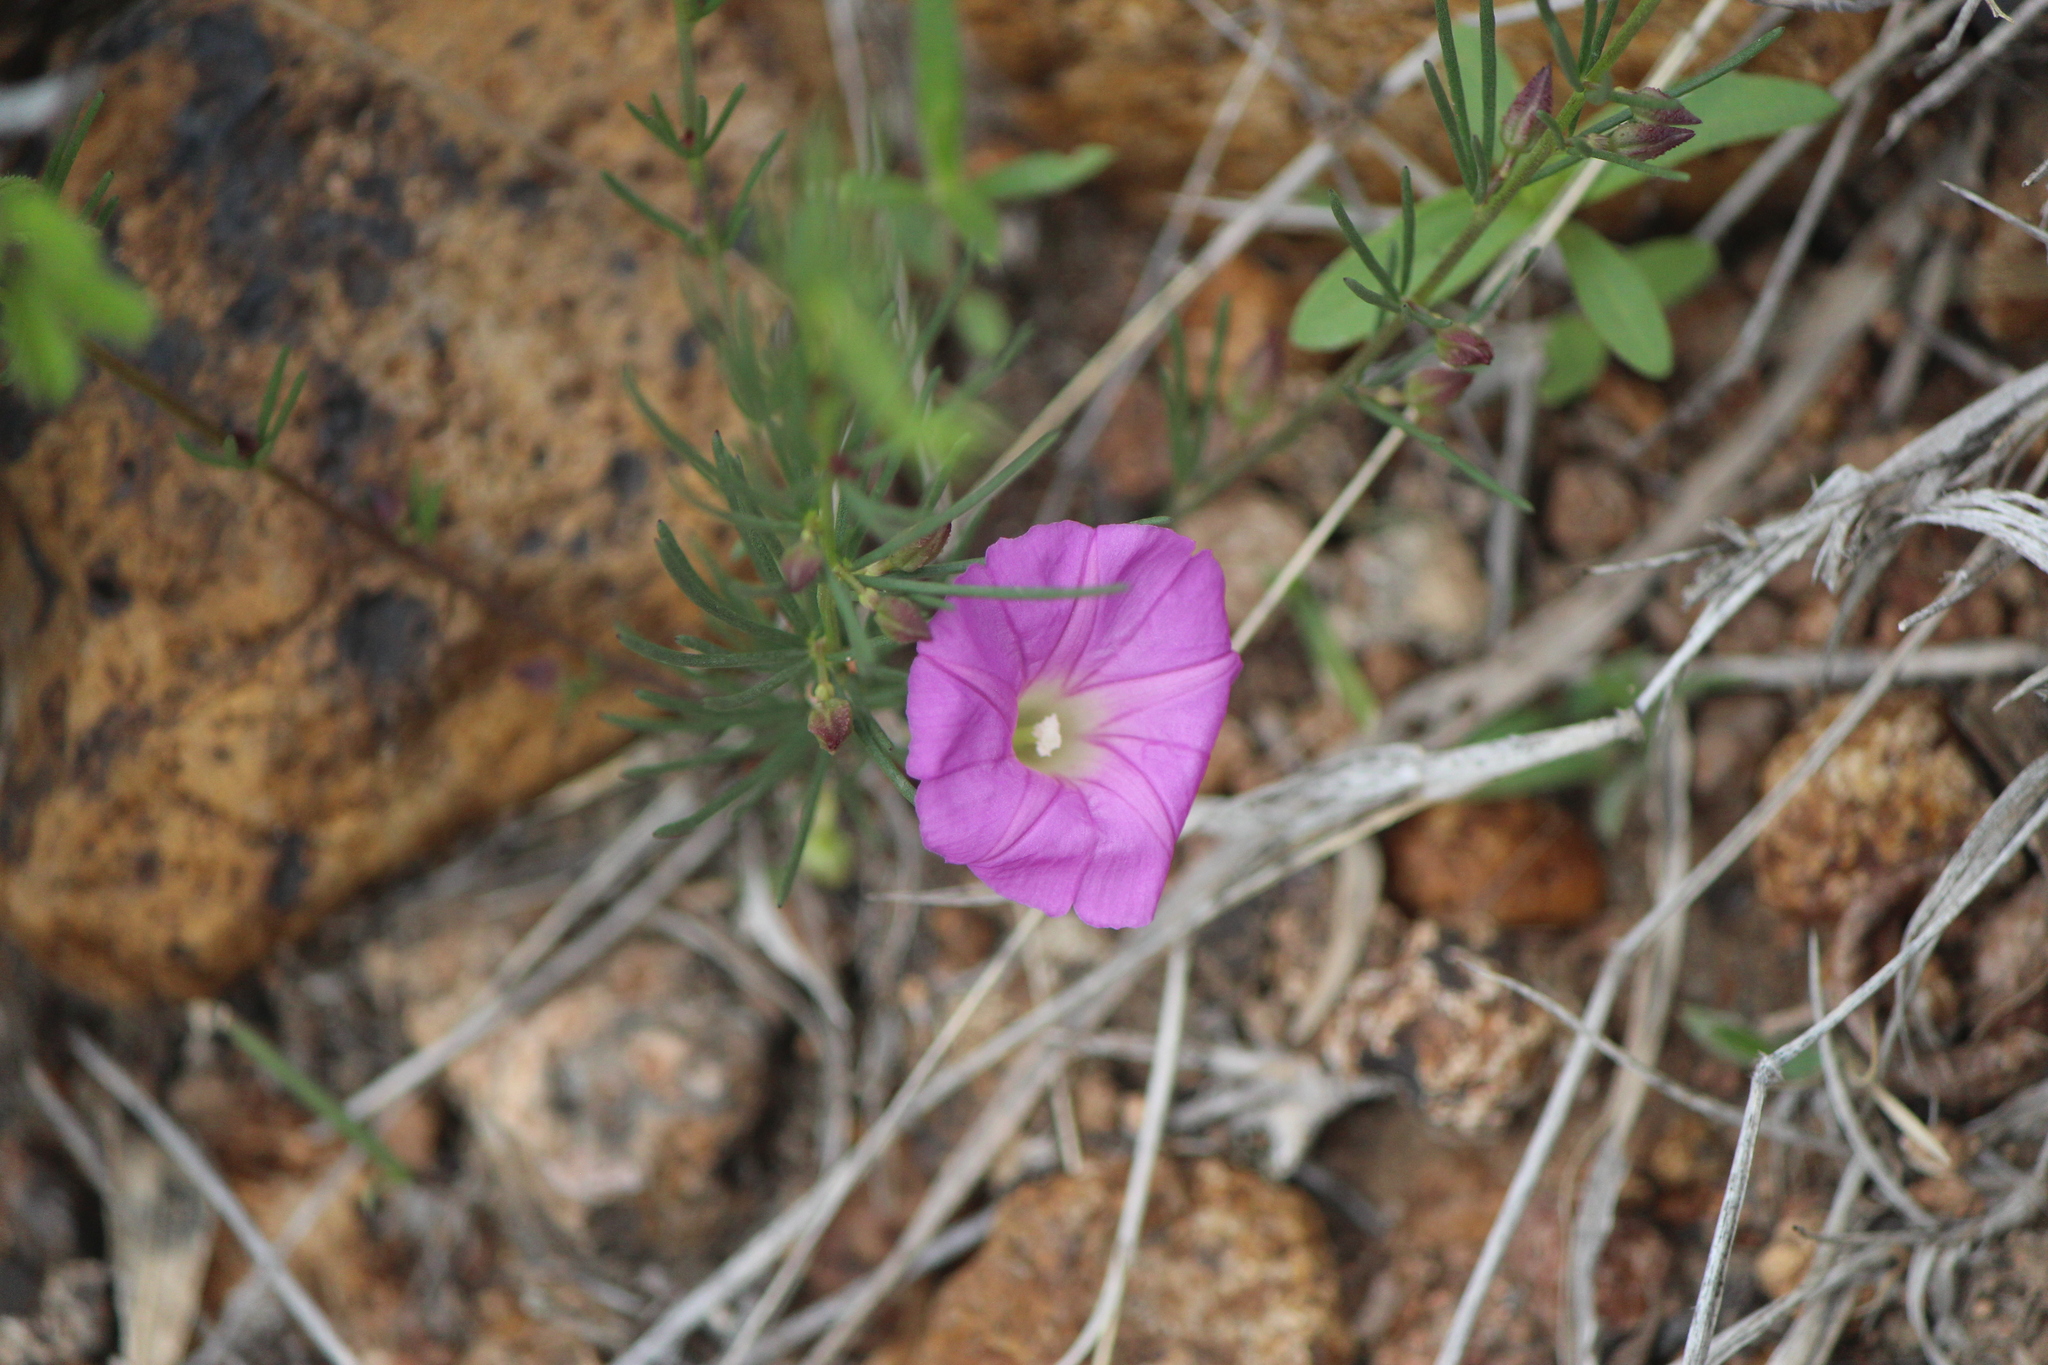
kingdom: Plantae
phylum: Tracheophyta
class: Magnoliopsida
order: Solanales
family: Convolvulaceae
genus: Ipomoea
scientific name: Ipomoea capillacea
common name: Purple morning-glory
